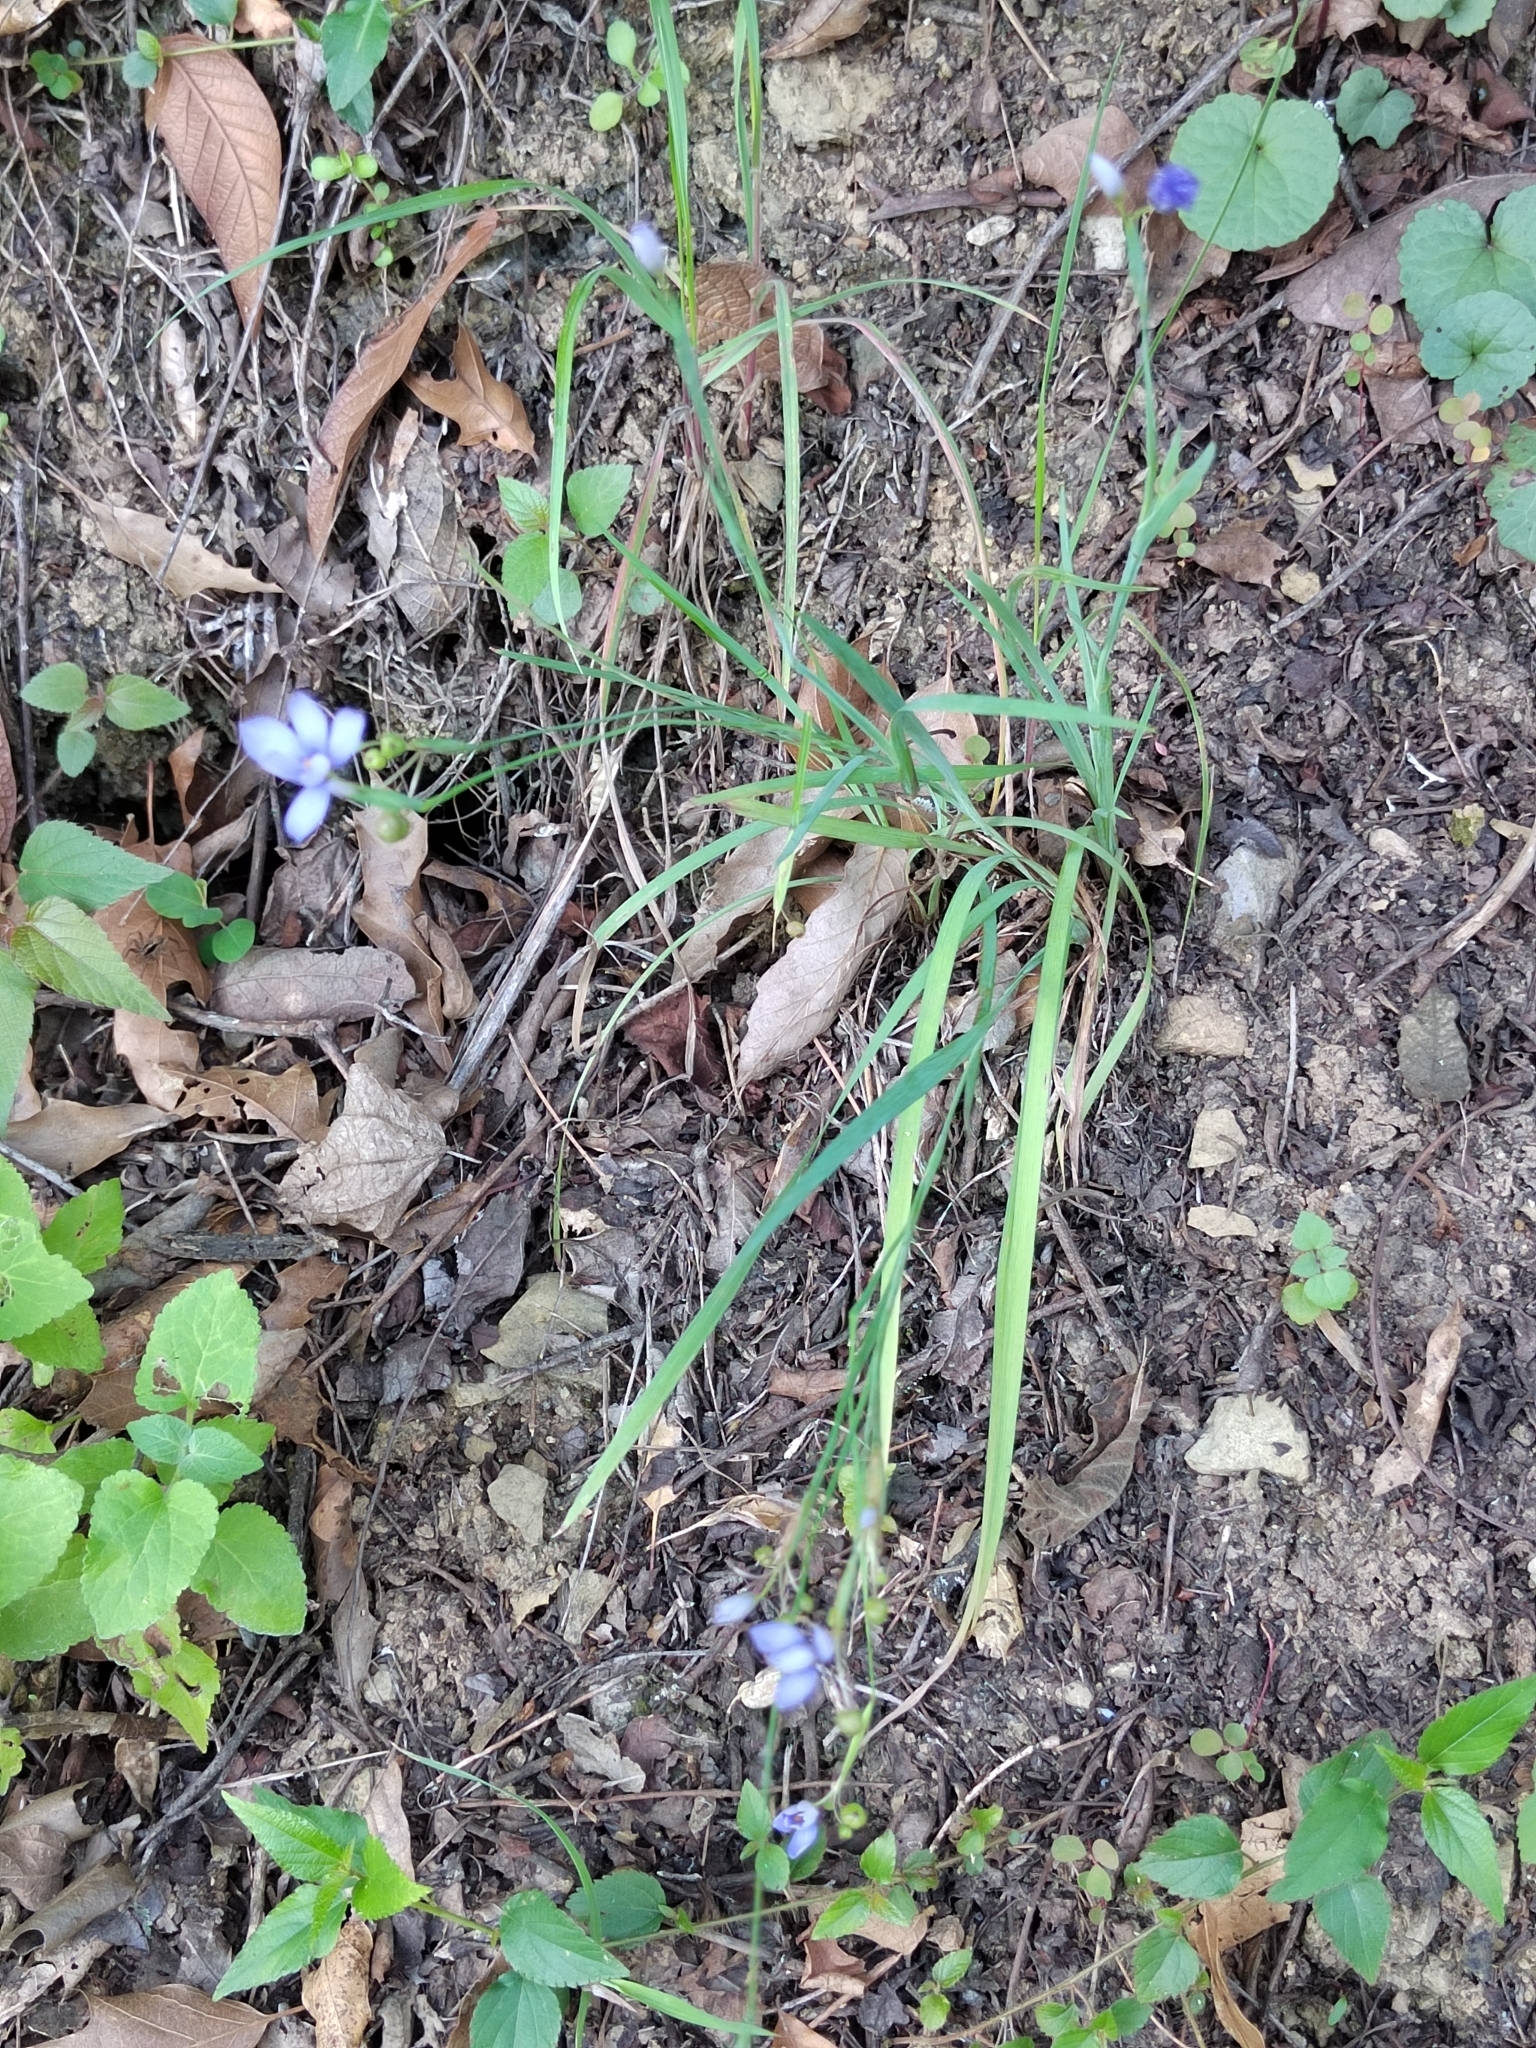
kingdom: Plantae
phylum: Tracheophyta
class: Liliopsida
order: Asparagales
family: Iridaceae
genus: Sisyrinchium
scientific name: Sisyrinchium angustifolium
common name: Narrow-leaf blue-eyed-grass
